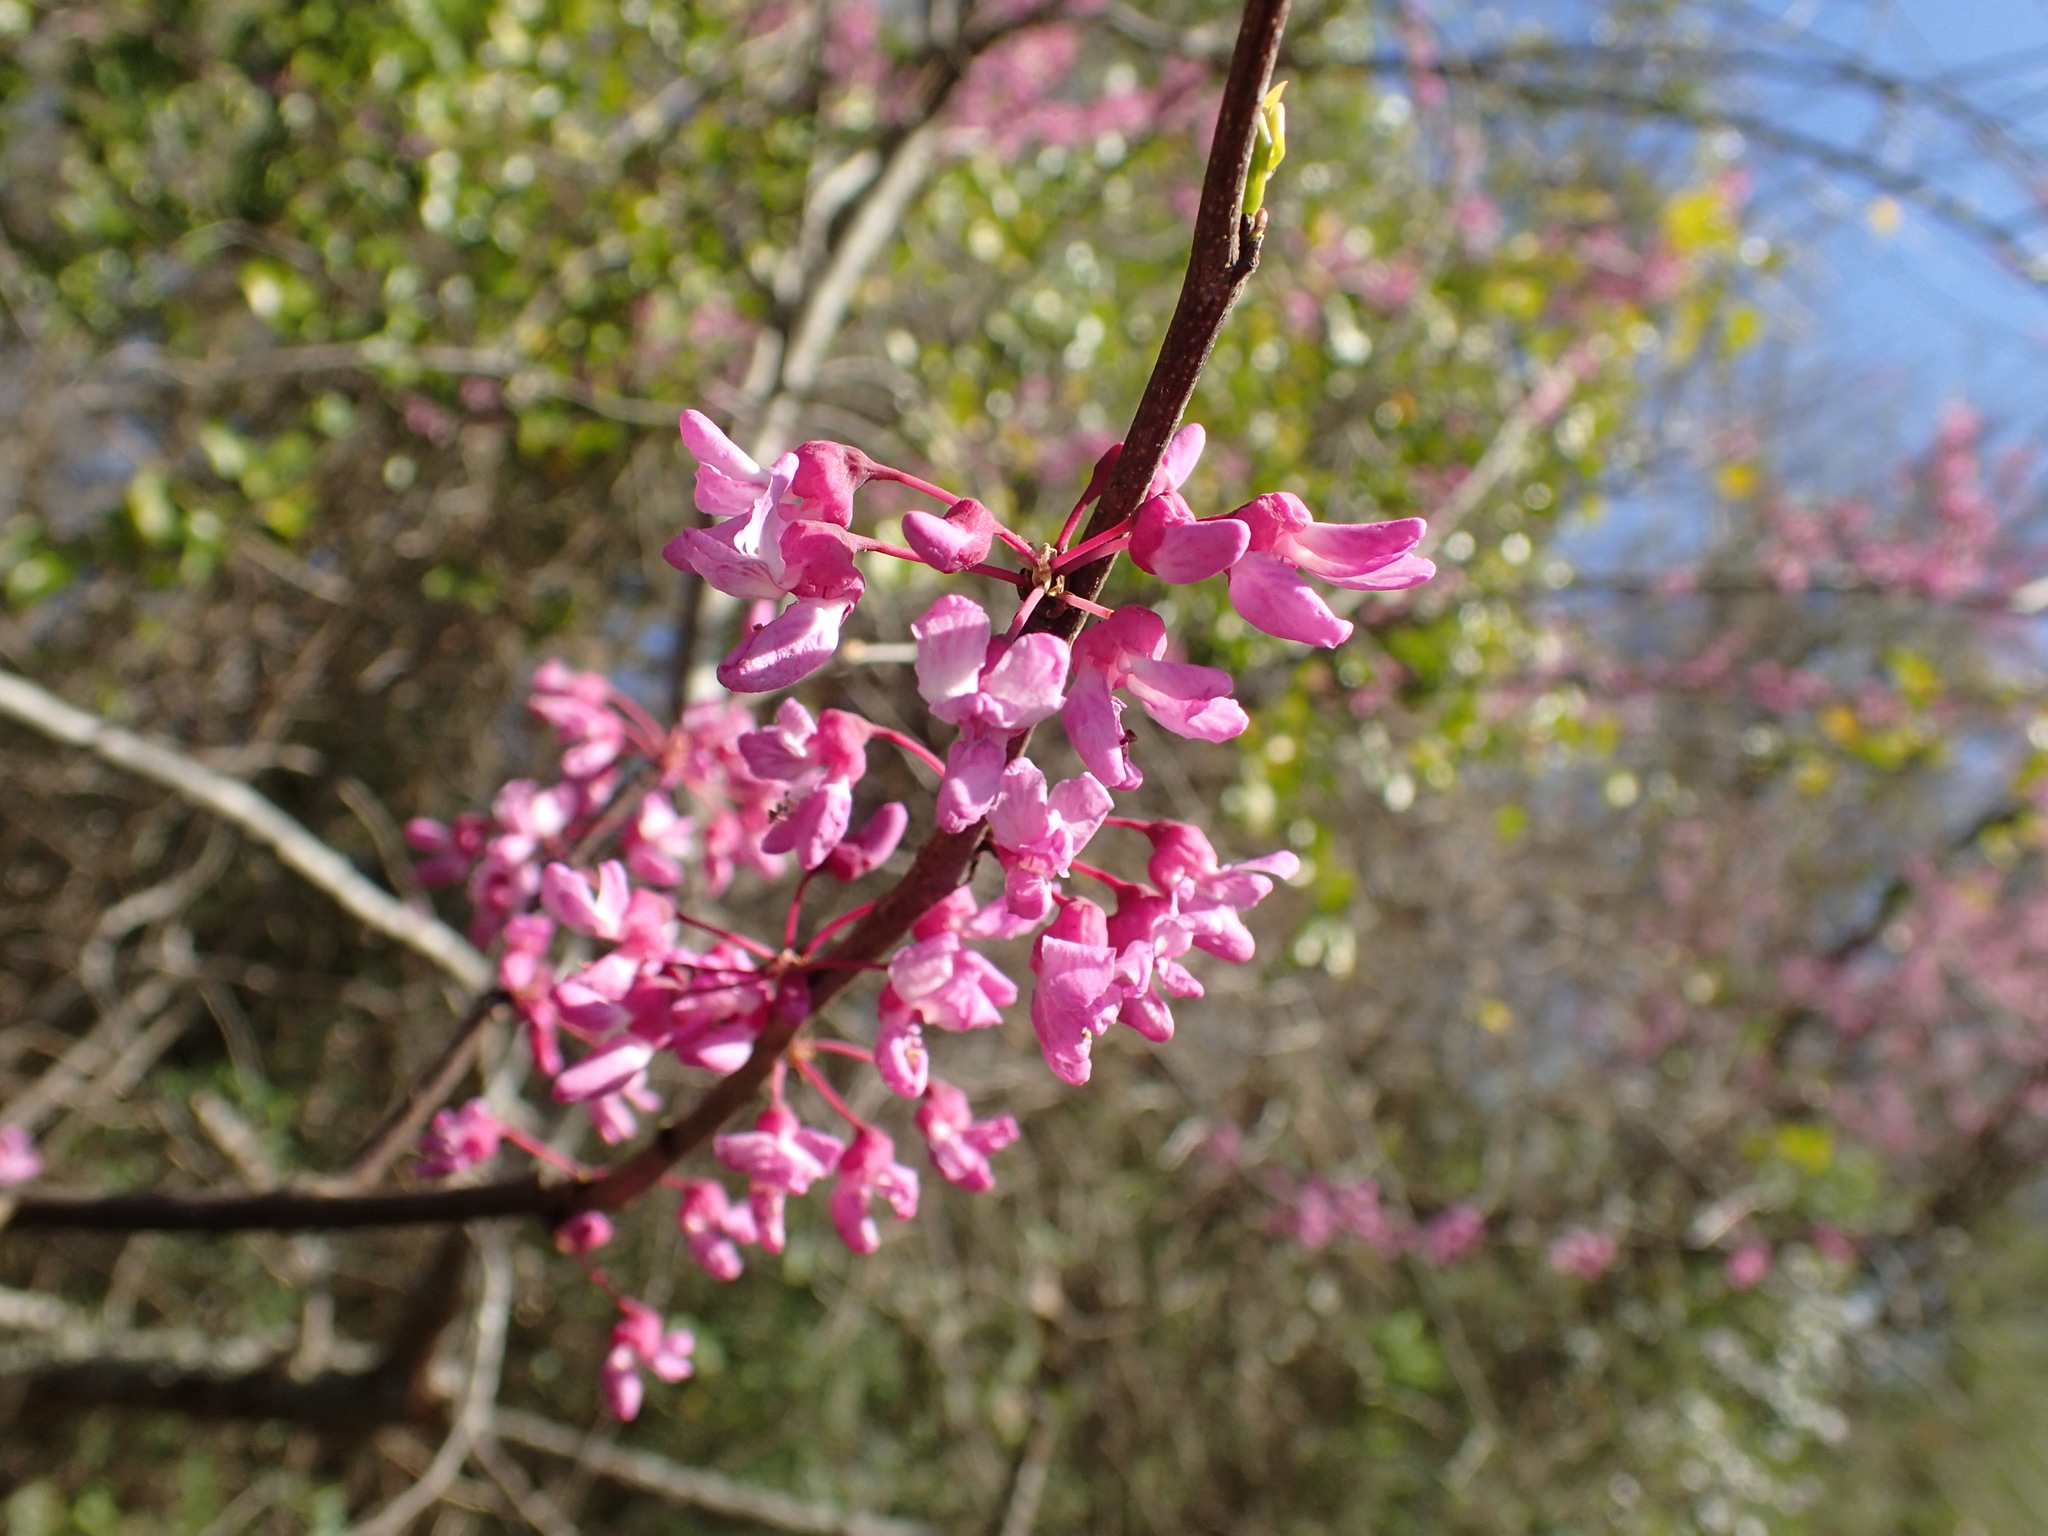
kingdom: Plantae
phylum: Tracheophyta
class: Magnoliopsida
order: Fabales
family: Fabaceae
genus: Cercis
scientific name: Cercis canadensis
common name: Eastern redbud
